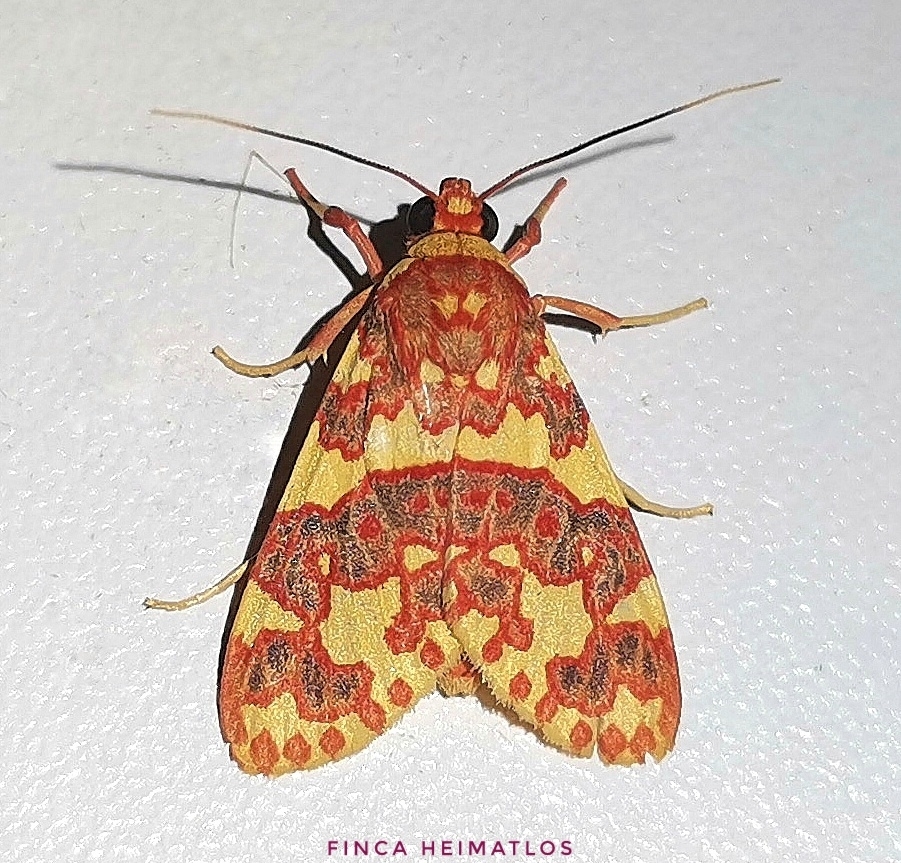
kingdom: Animalia
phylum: Arthropoda
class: Insecta
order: Lepidoptera
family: Erebidae
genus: Hyponerita
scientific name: Hyponerita persimilis
